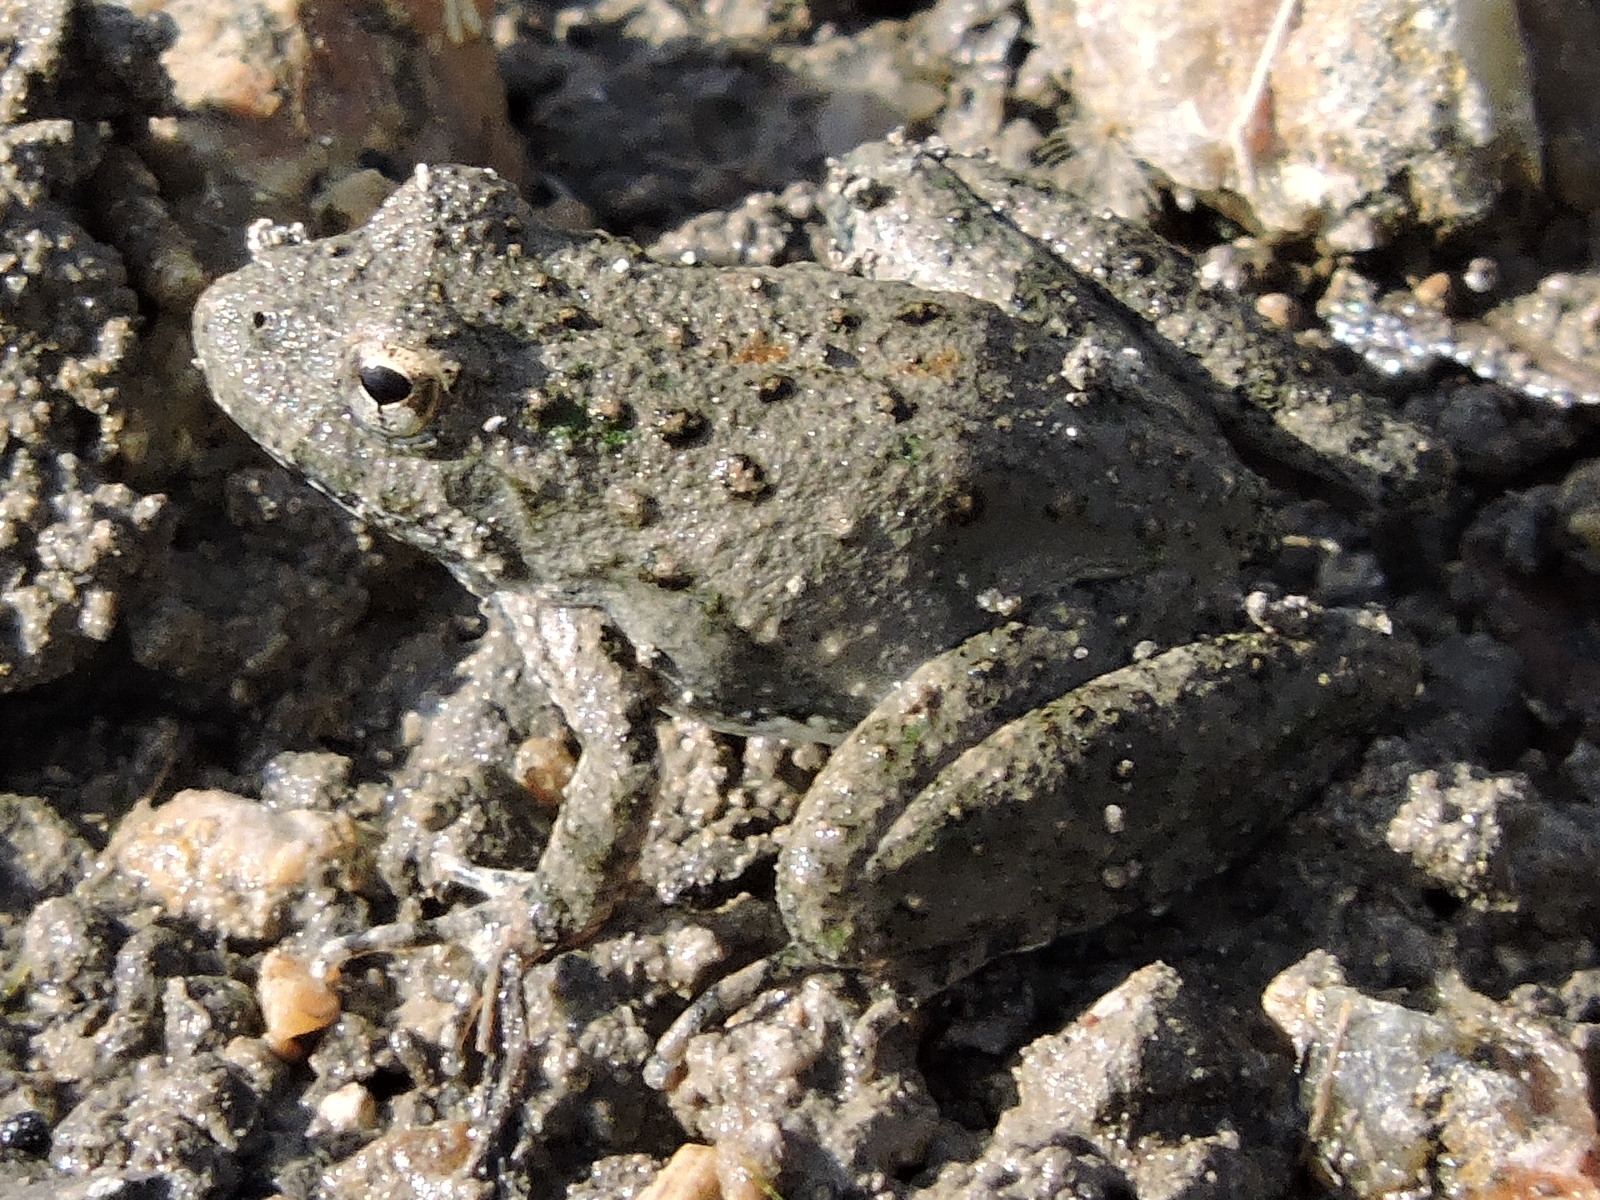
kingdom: Animalia
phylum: Chordata
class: Amphibia
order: Anura
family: Hylidae
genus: Acris
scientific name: Acris blanchardi
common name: Blanchard's cricket frog
